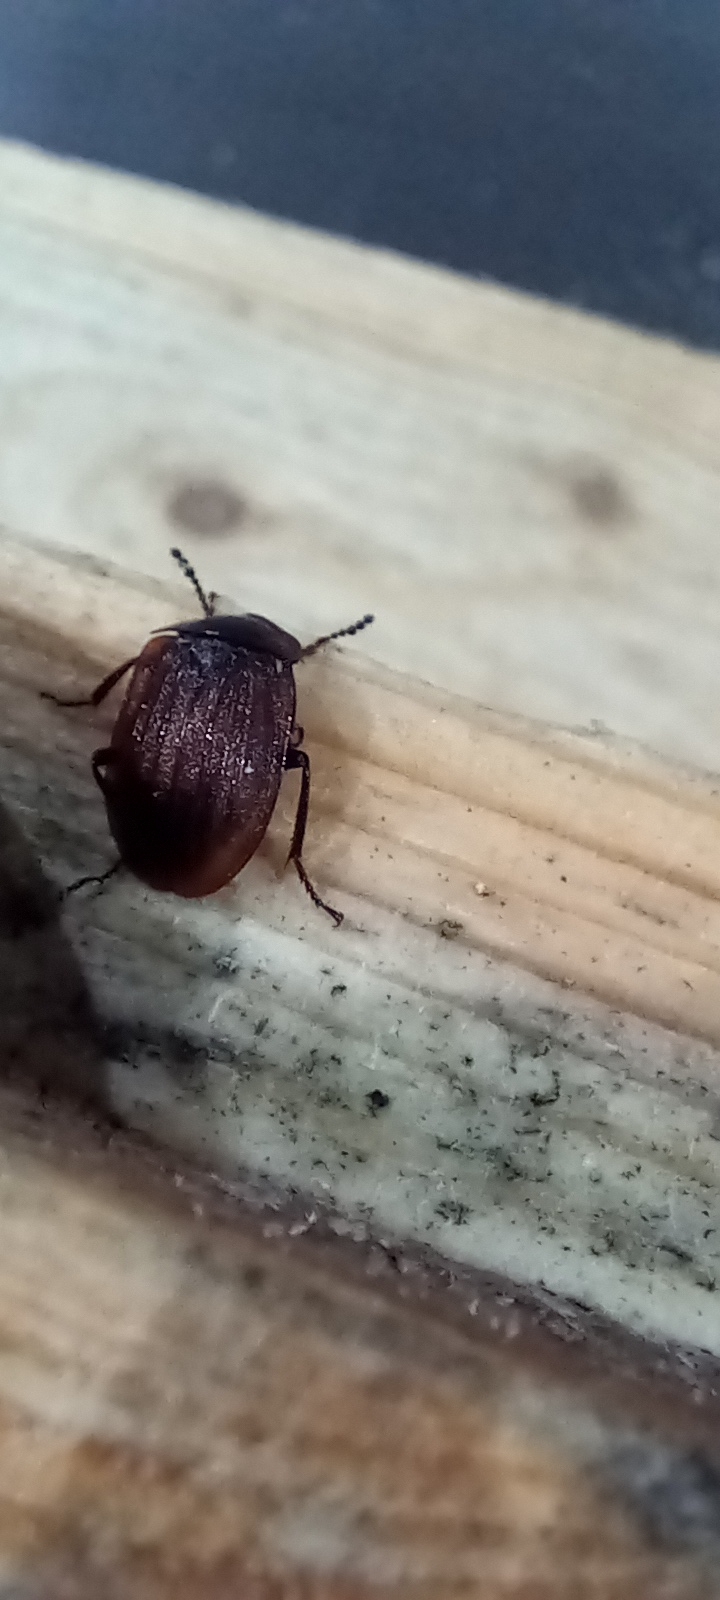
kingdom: Animalia
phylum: Arthropoda
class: Insecta
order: Coleoptera
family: Staphylinidae
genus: Silpha
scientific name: Silpha atrata
